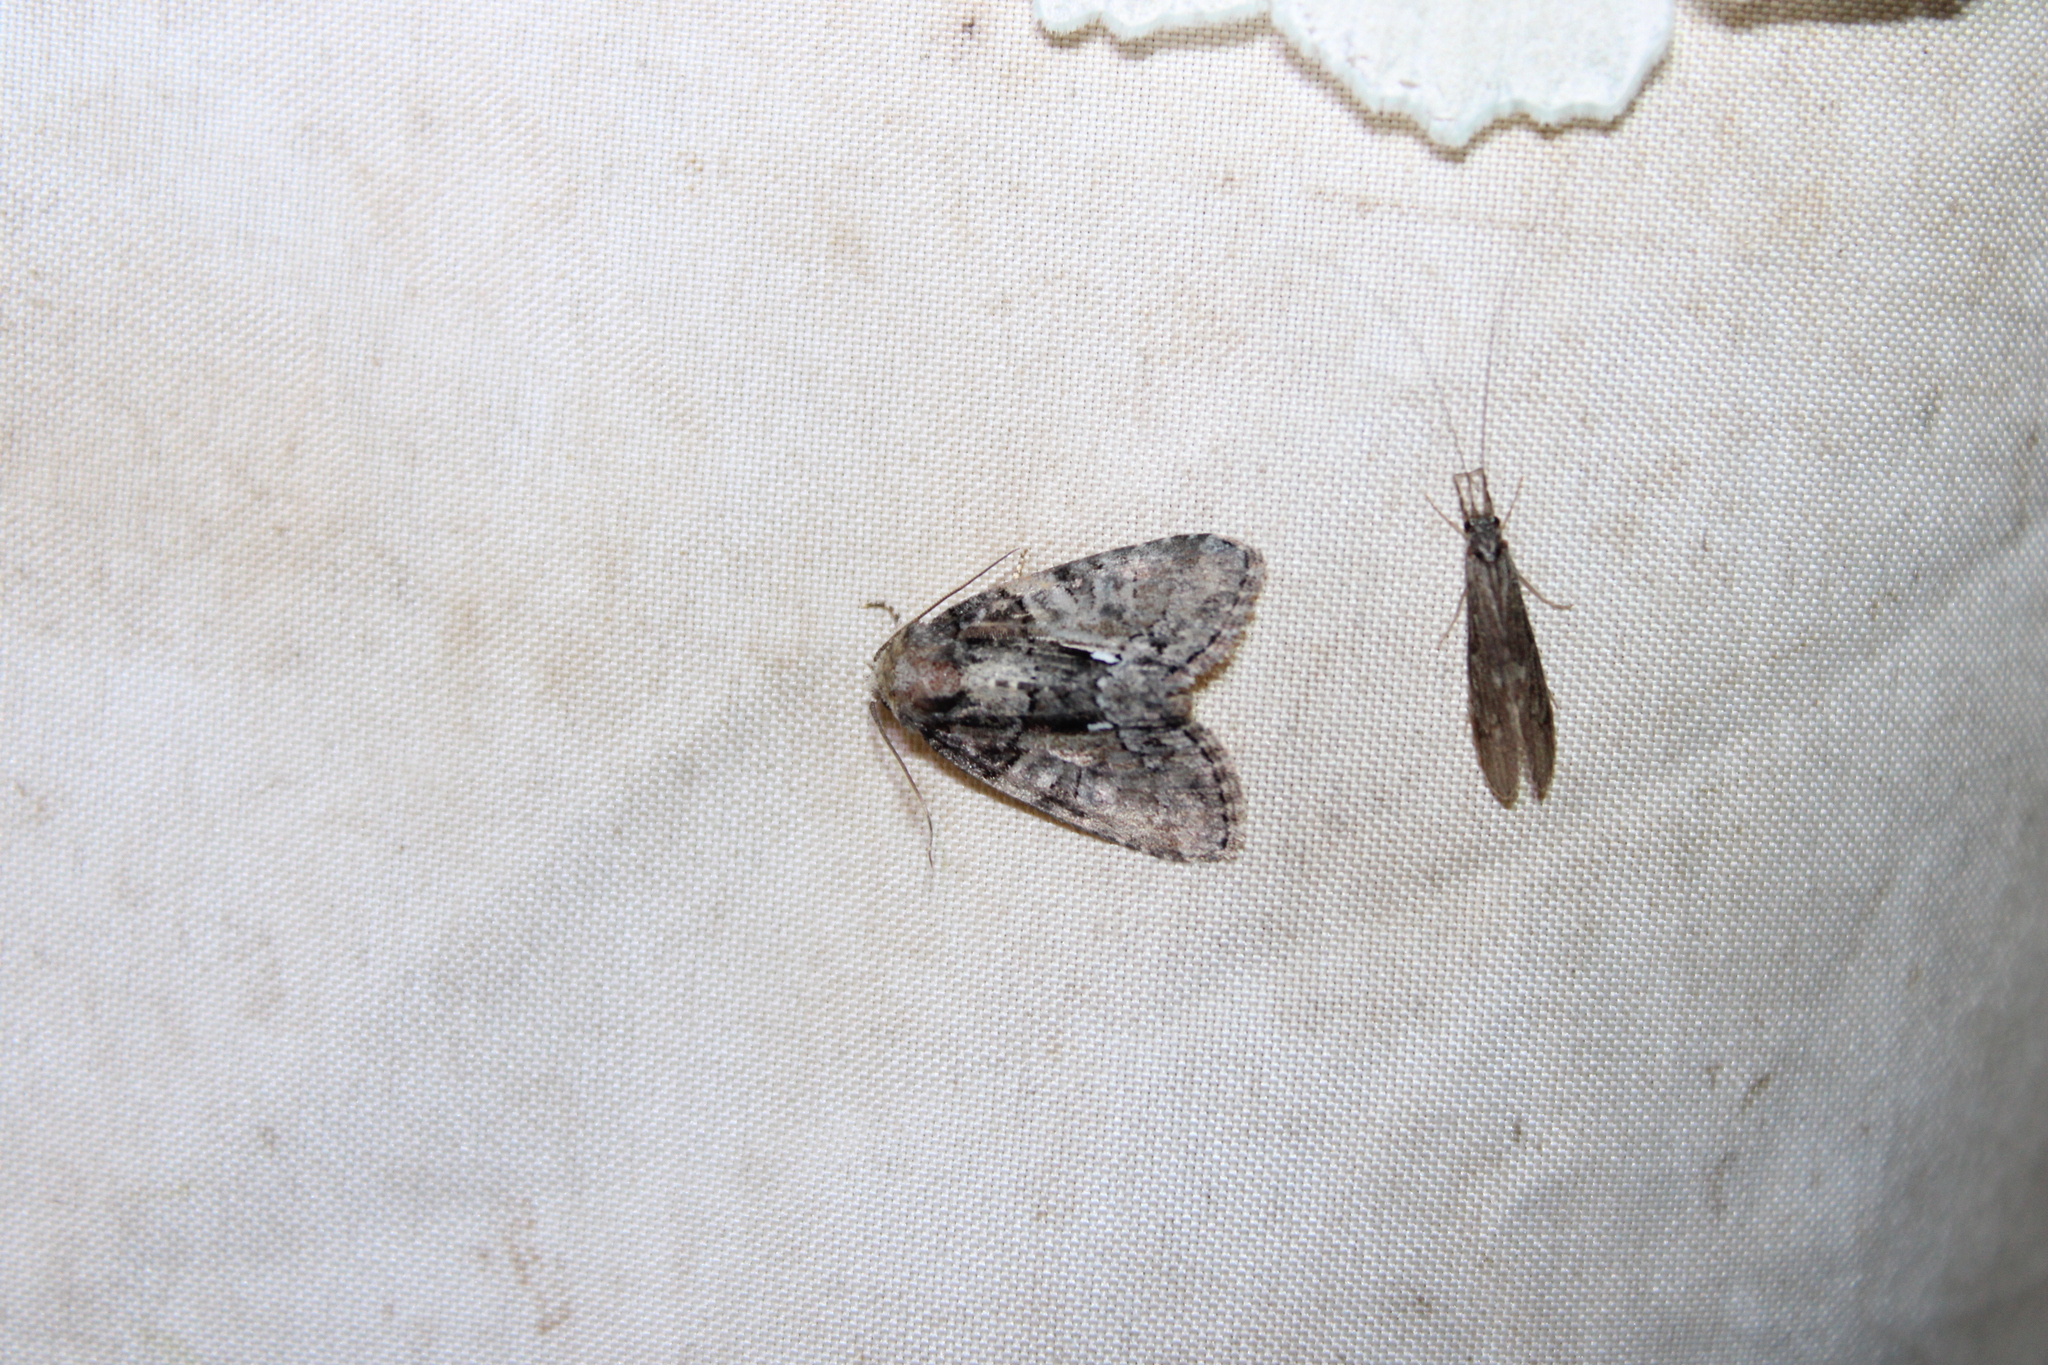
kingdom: Animalia
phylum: Arthropoda
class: Insecta
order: Lepidoptera
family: Noctuidae
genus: Chytonix
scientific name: Chytonix palliatricula
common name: Cloaked marvel
